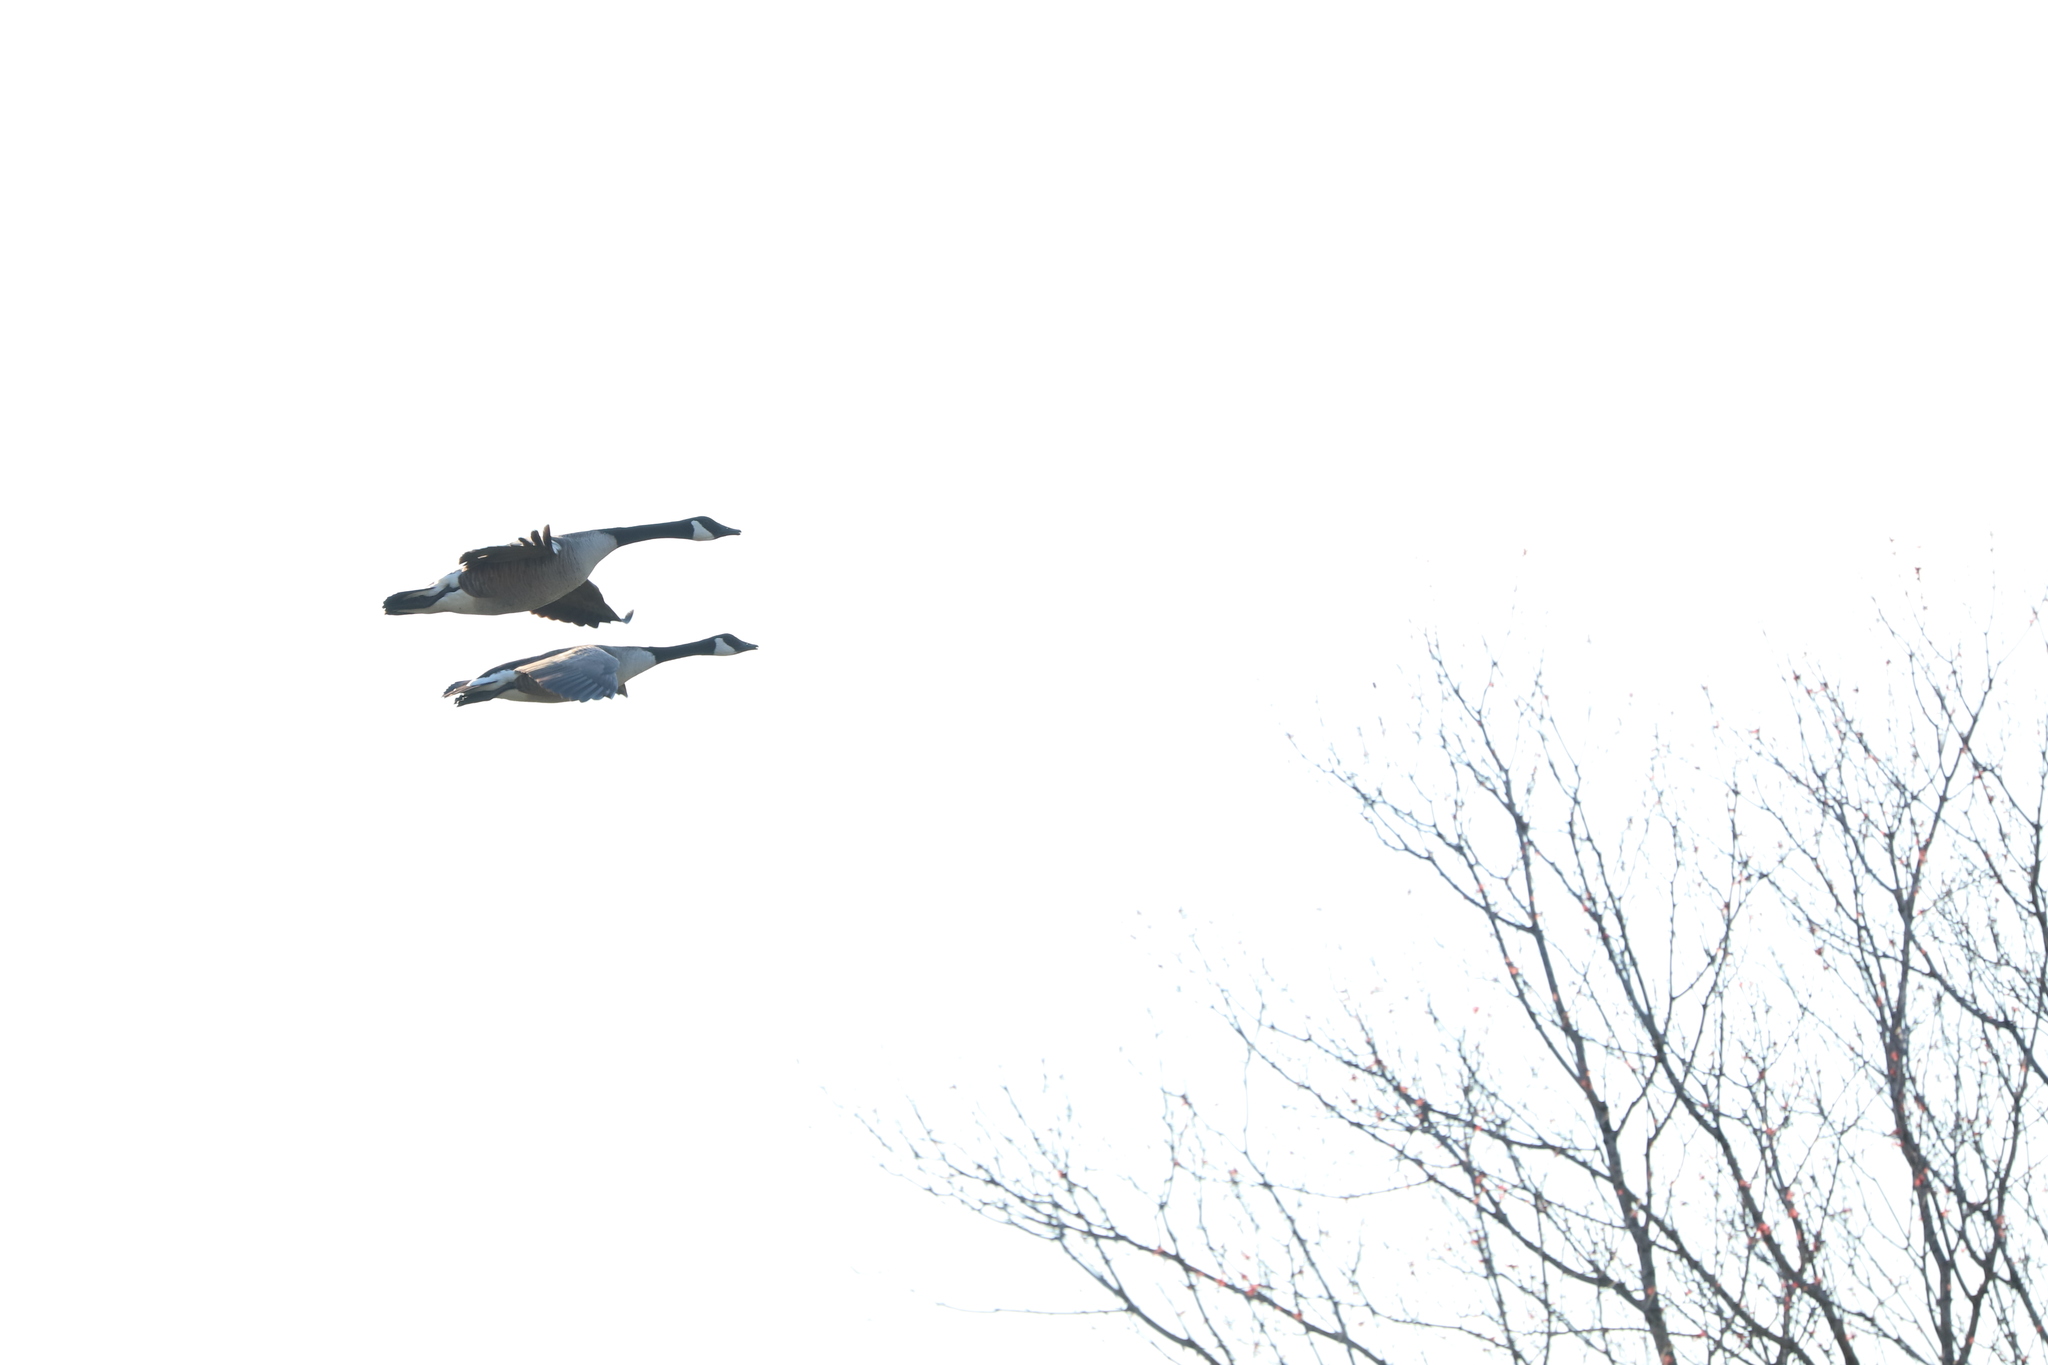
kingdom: Animalia
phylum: Chordata
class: Aves
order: Anseriformes
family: Anatidae
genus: Branta
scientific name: Branta canadensis
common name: Canada goose
